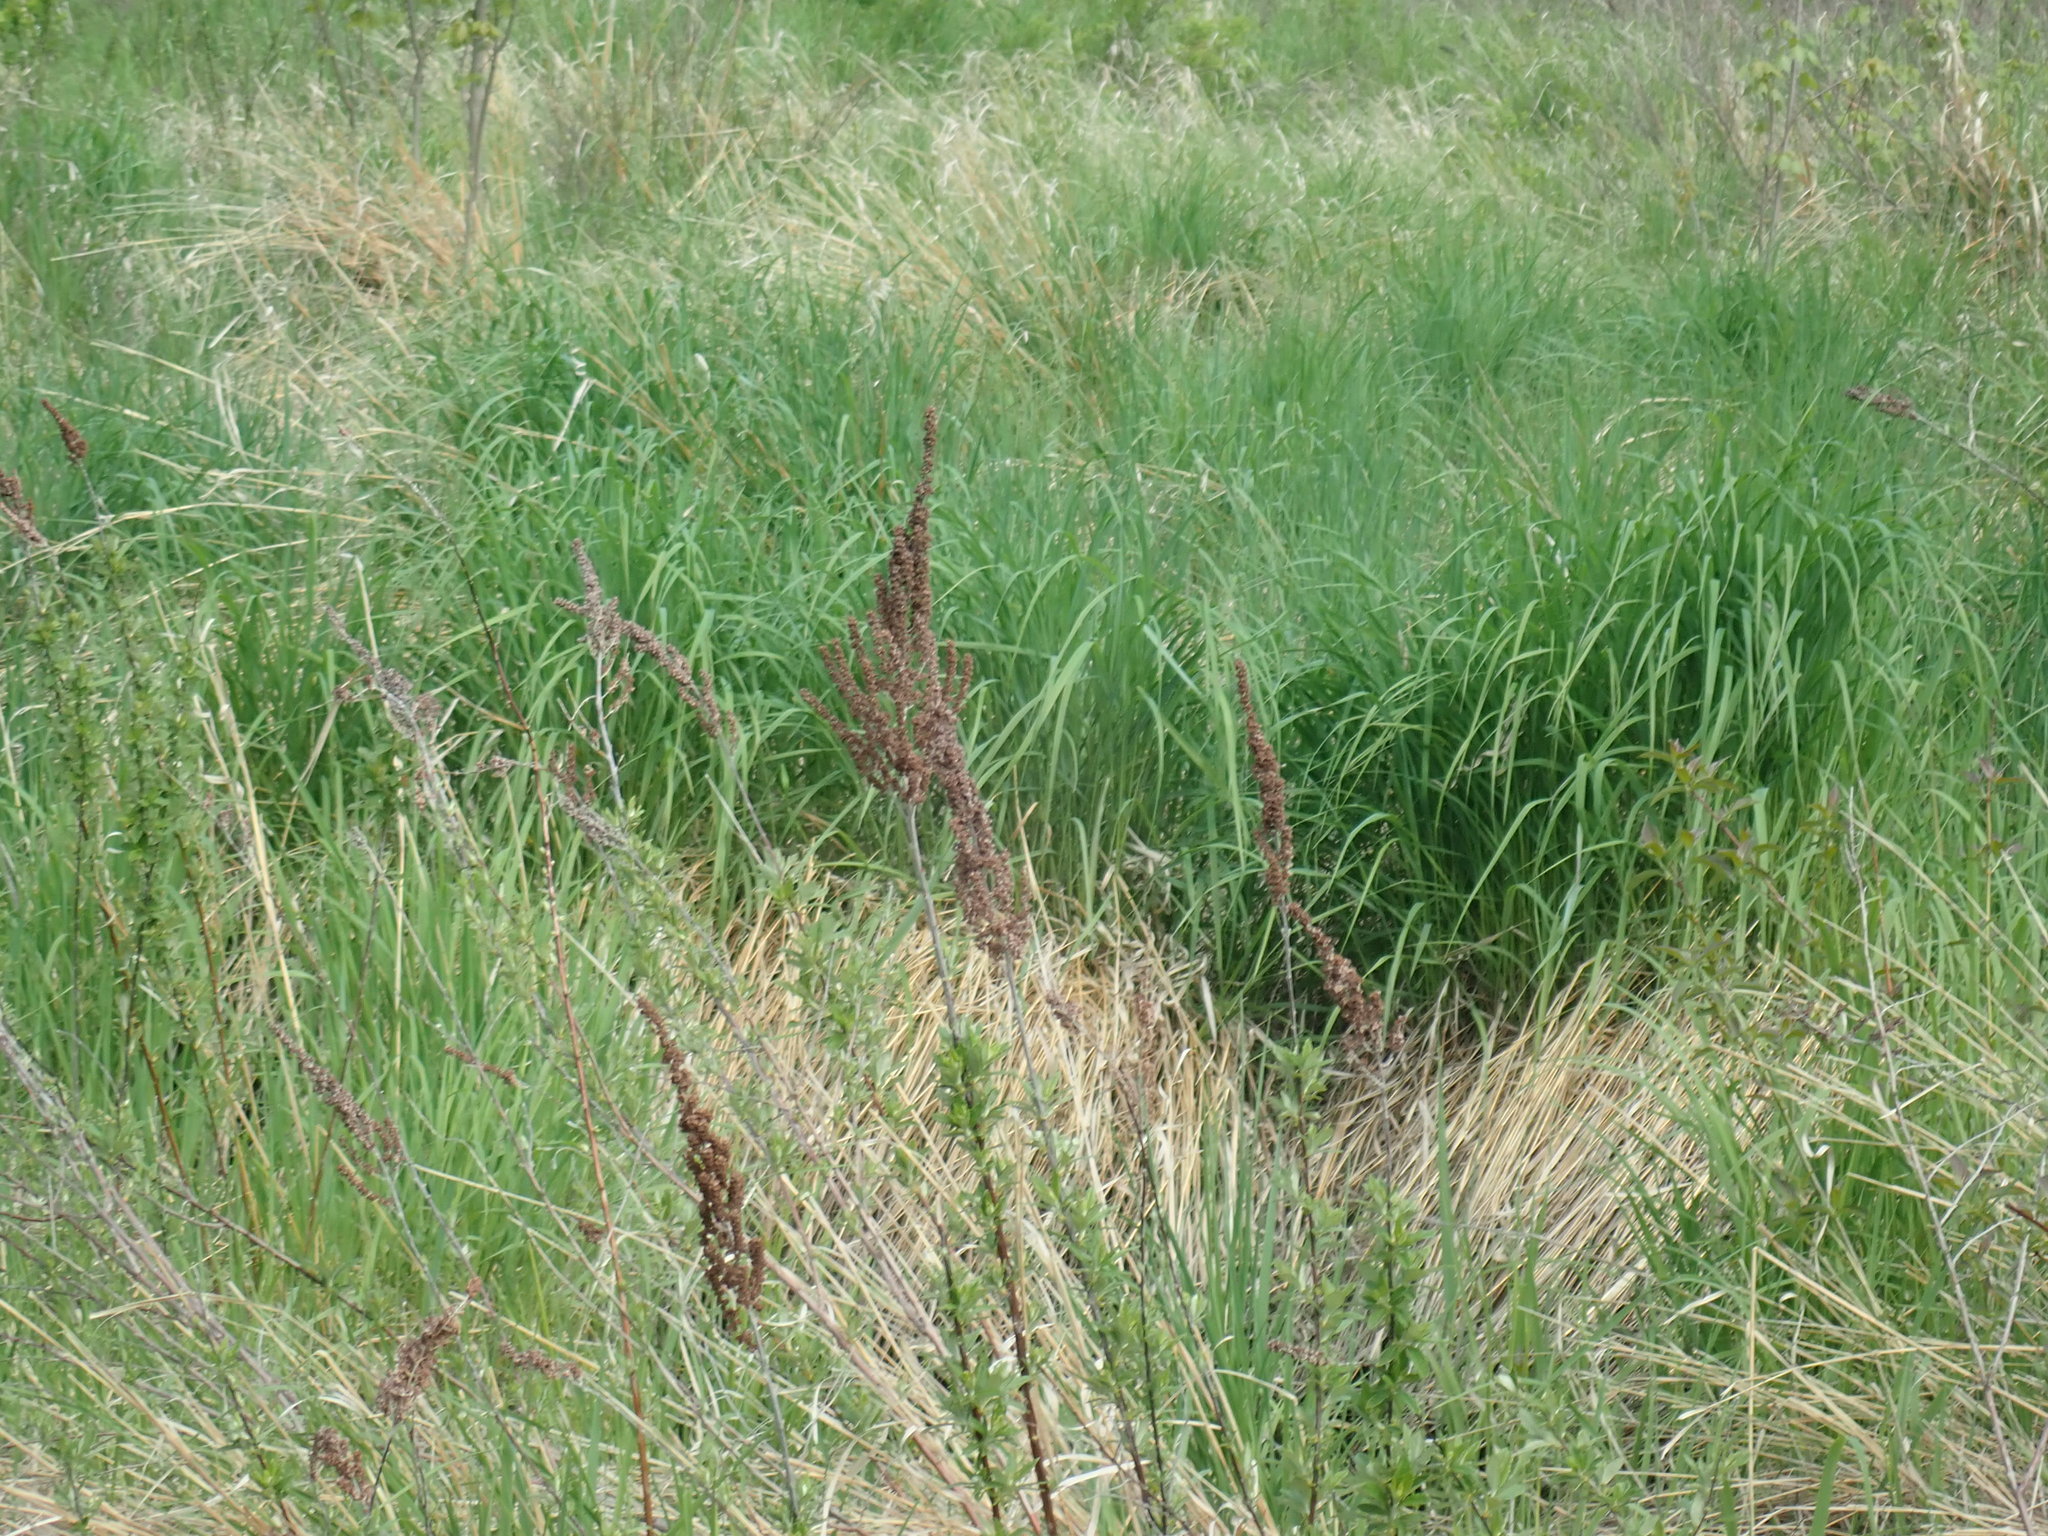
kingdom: Plantae
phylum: Tracheophyta
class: Magnoliopsida
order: Rosales
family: Rosaceae
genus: Spiraea
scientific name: Spiraea tomentosa
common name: Hardhack
